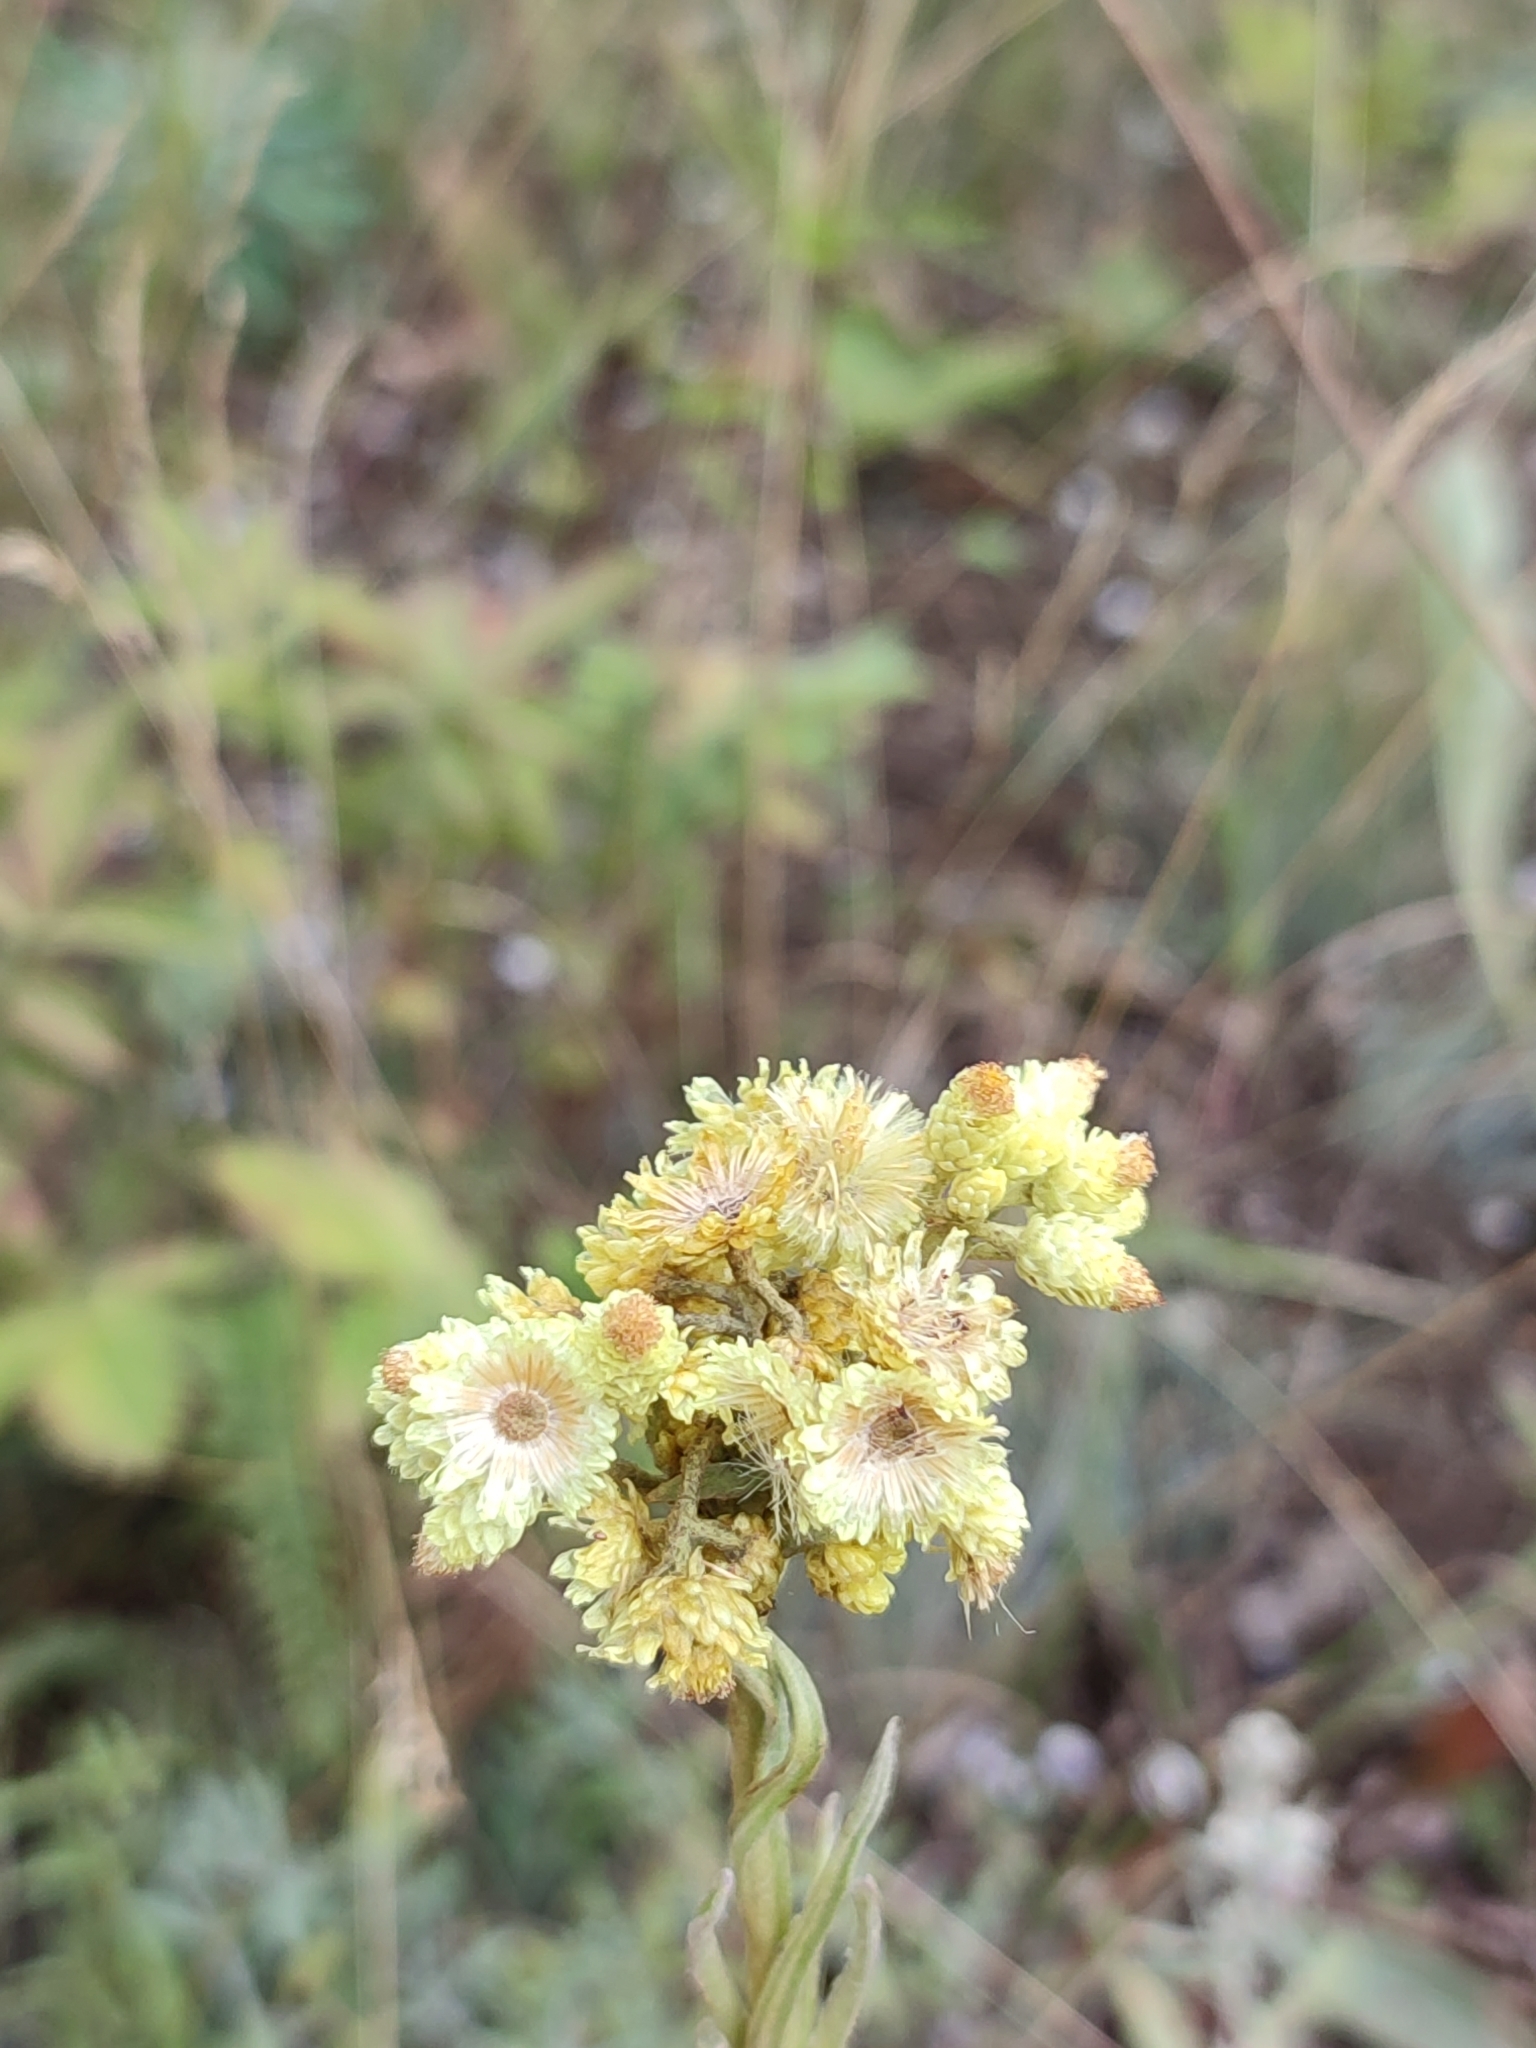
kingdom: Plantae
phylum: Tracheophyta
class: Magnoliopsida
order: Asterales
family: Asteraceae
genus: Helichrysum
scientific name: Helichrysum arenarium
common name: Strawflower
